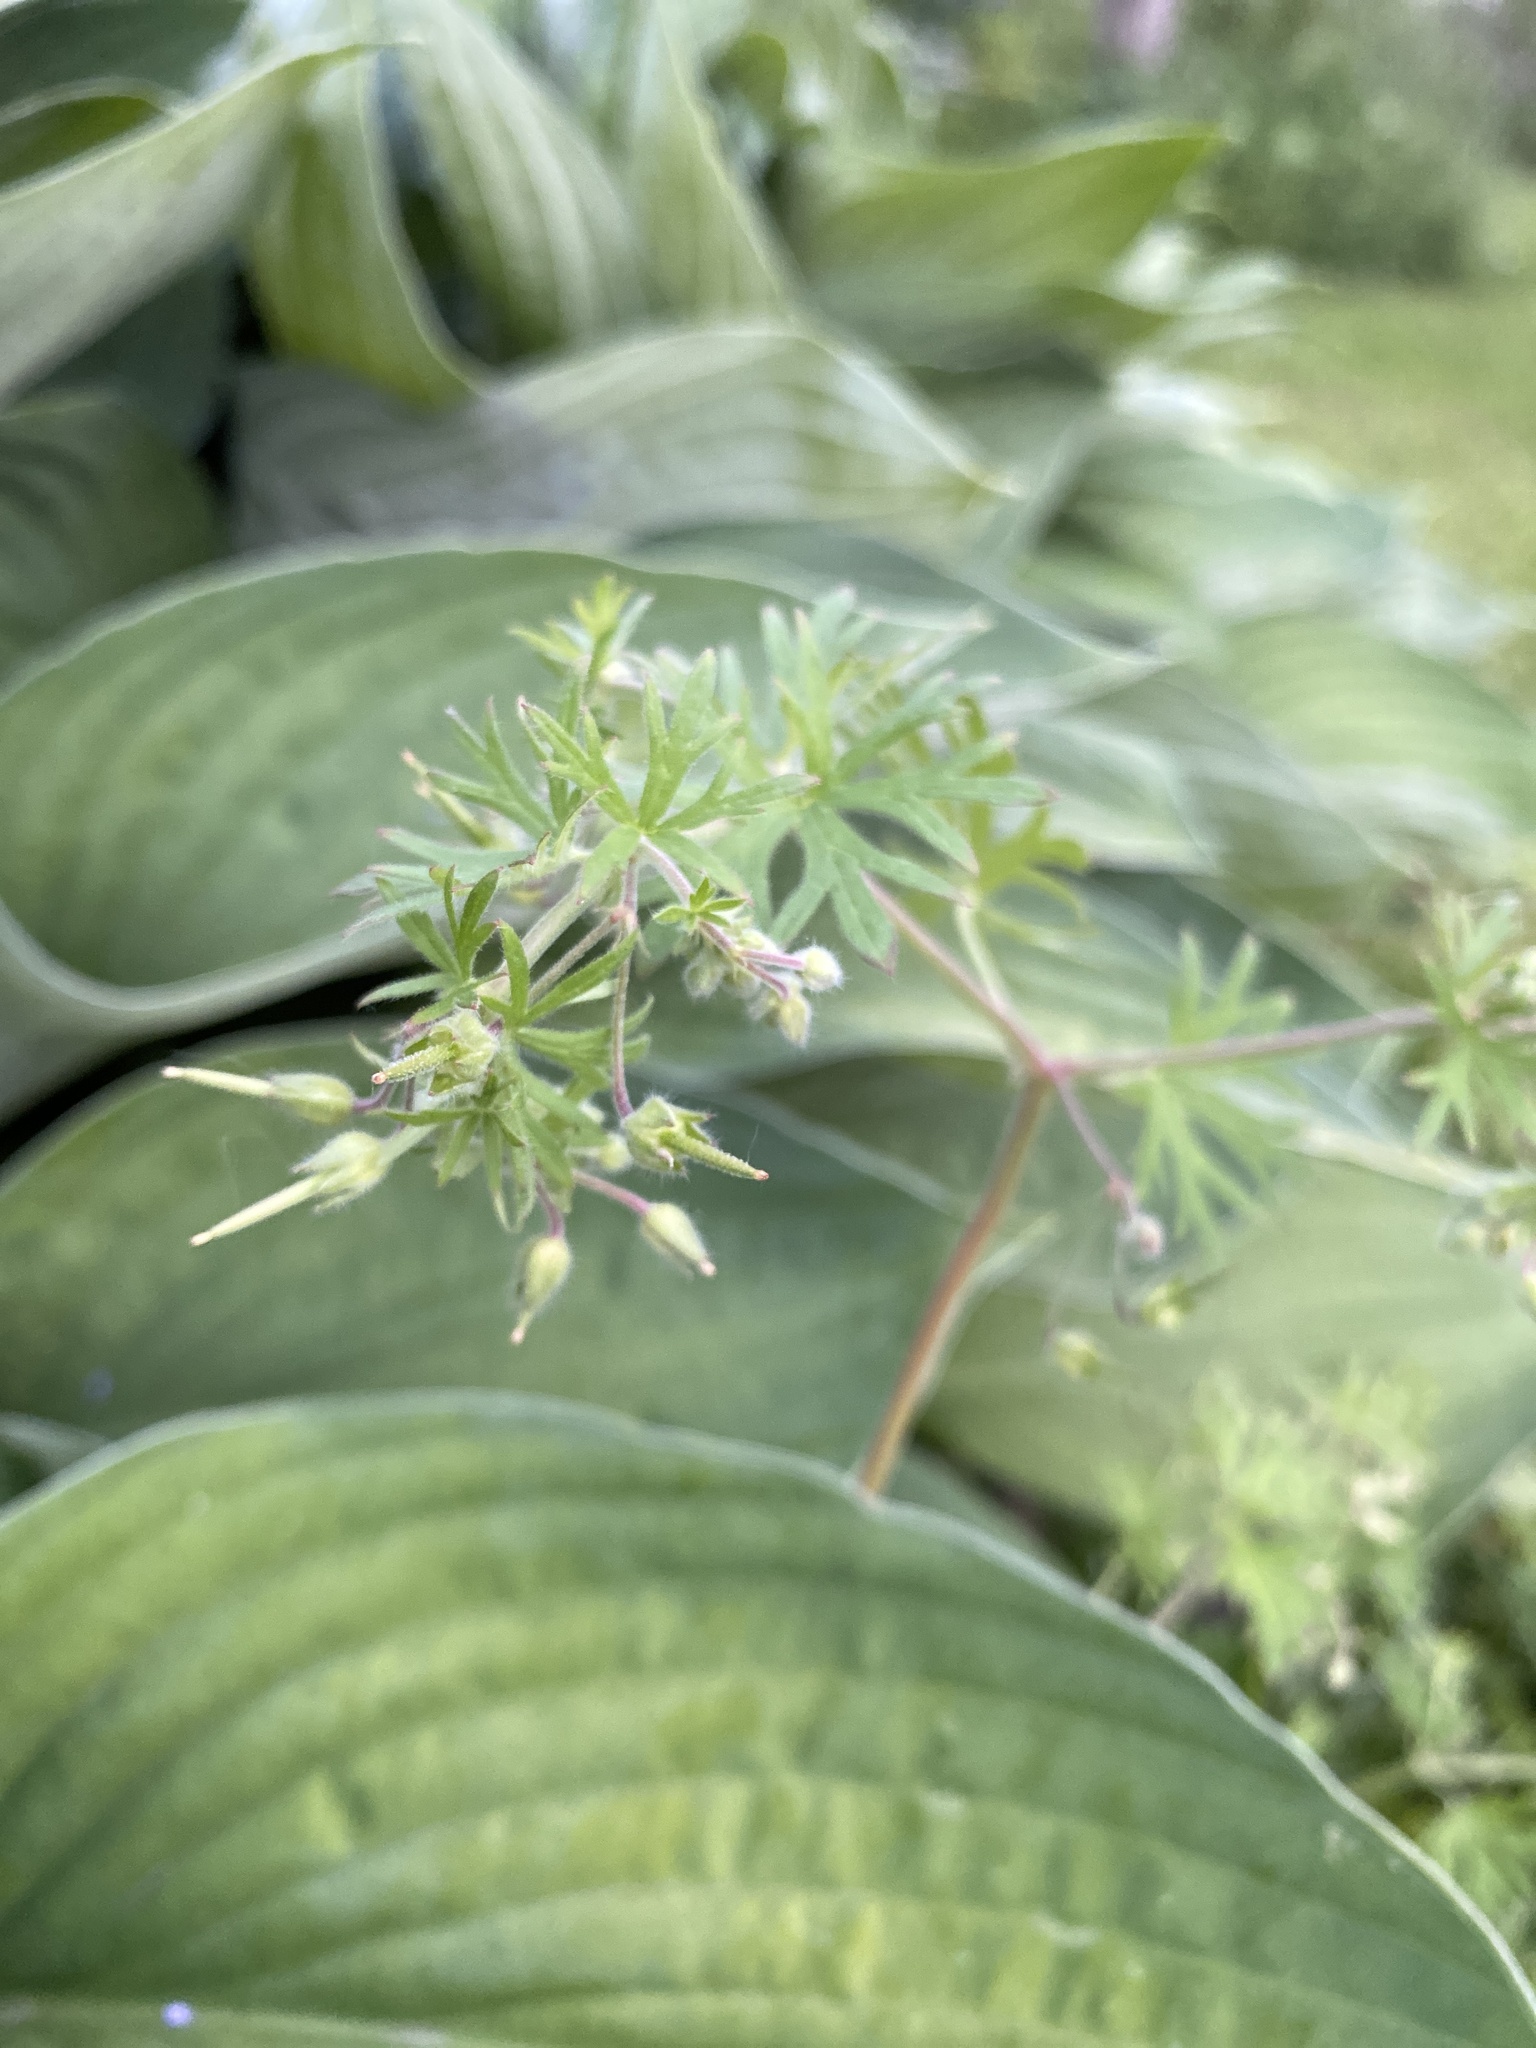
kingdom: Plantae
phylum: Tracheophyta
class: Magnoliopsida
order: Geraniales
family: Geraniaceae
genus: Geranium
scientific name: Geranium pusillum
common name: Small geranium
